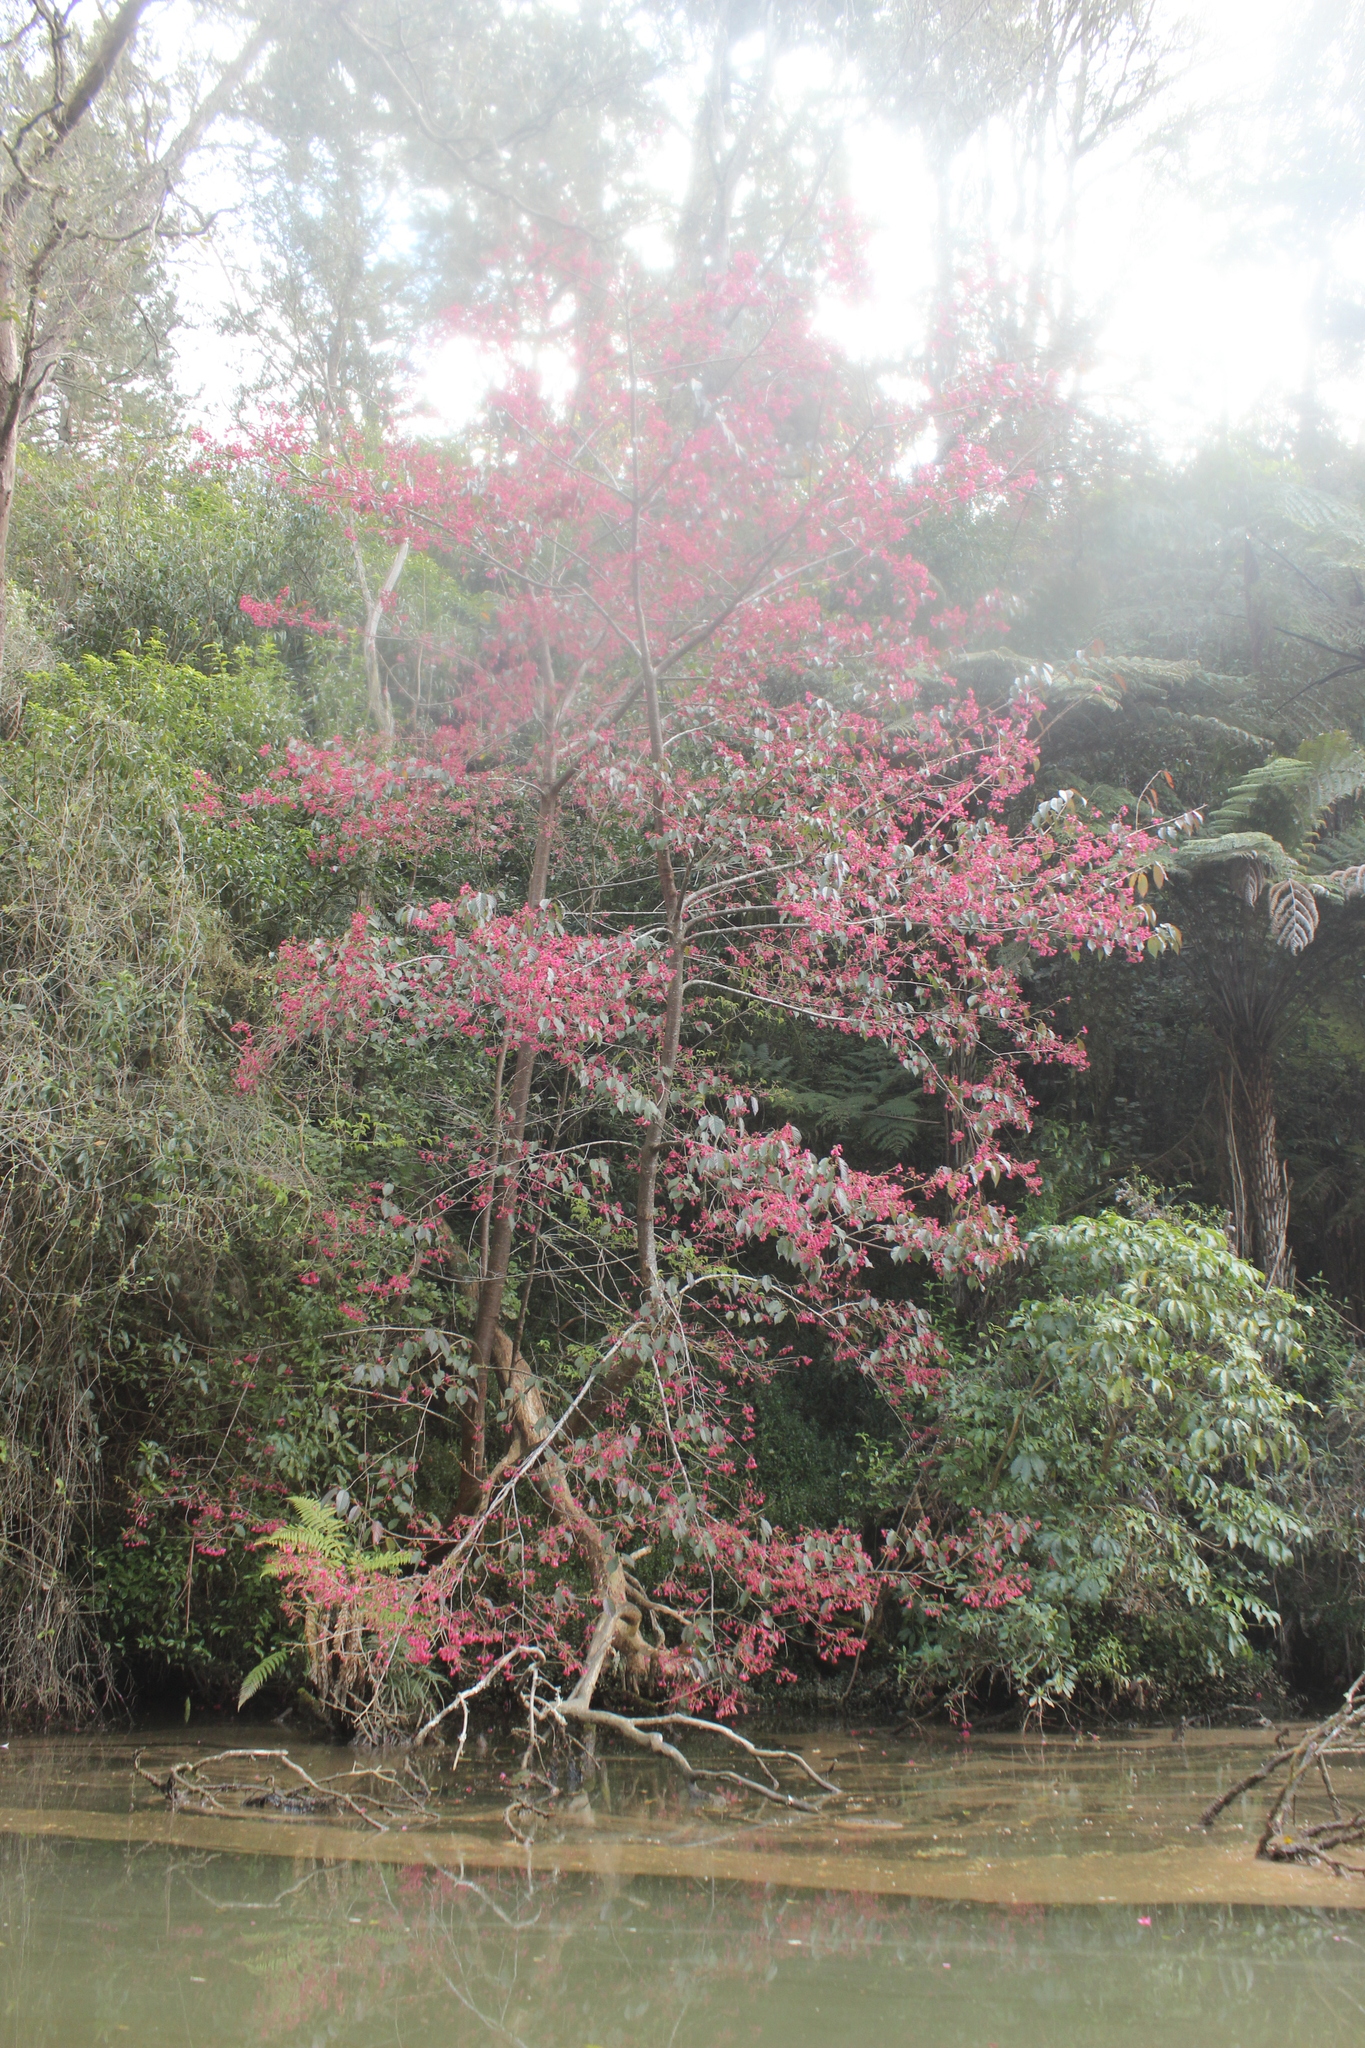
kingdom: Plantae
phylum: Tracheophyta
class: Magnoliopsida
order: Rosales
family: Rosaceae
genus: Prunus
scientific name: Prunus campanulata
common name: Taiwan flowering cherry
